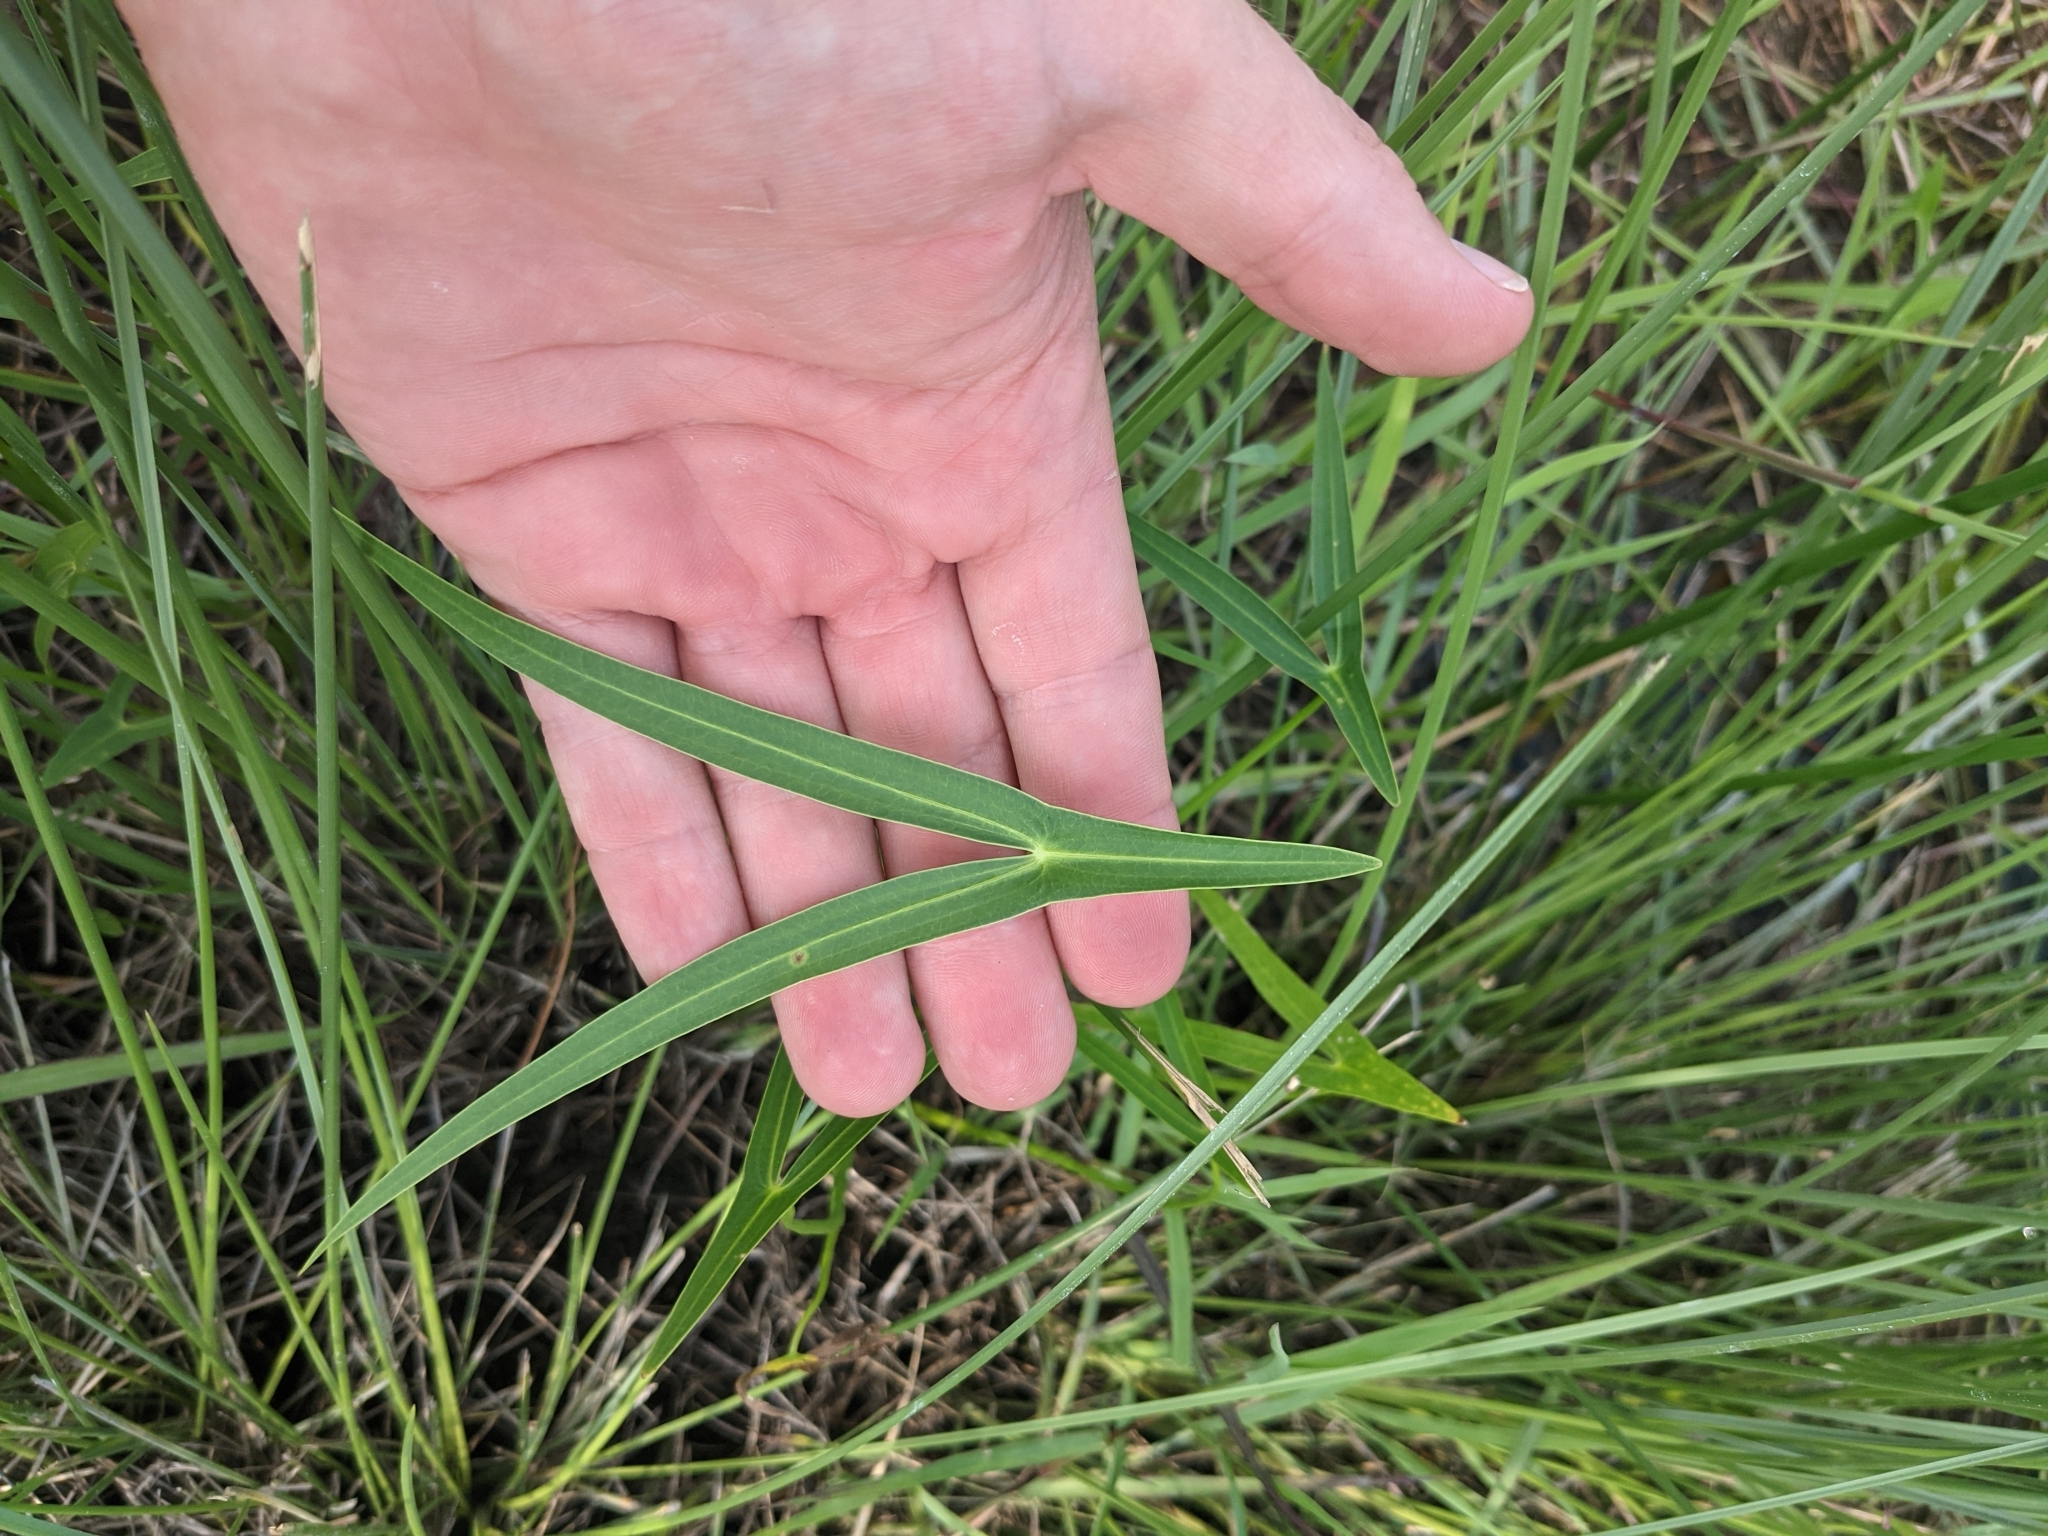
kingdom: Plantae
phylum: Tracheophyta
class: Liliopsida
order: Alismatales
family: Alismataceae
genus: Sagittaria
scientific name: Sagittaria longiloba
